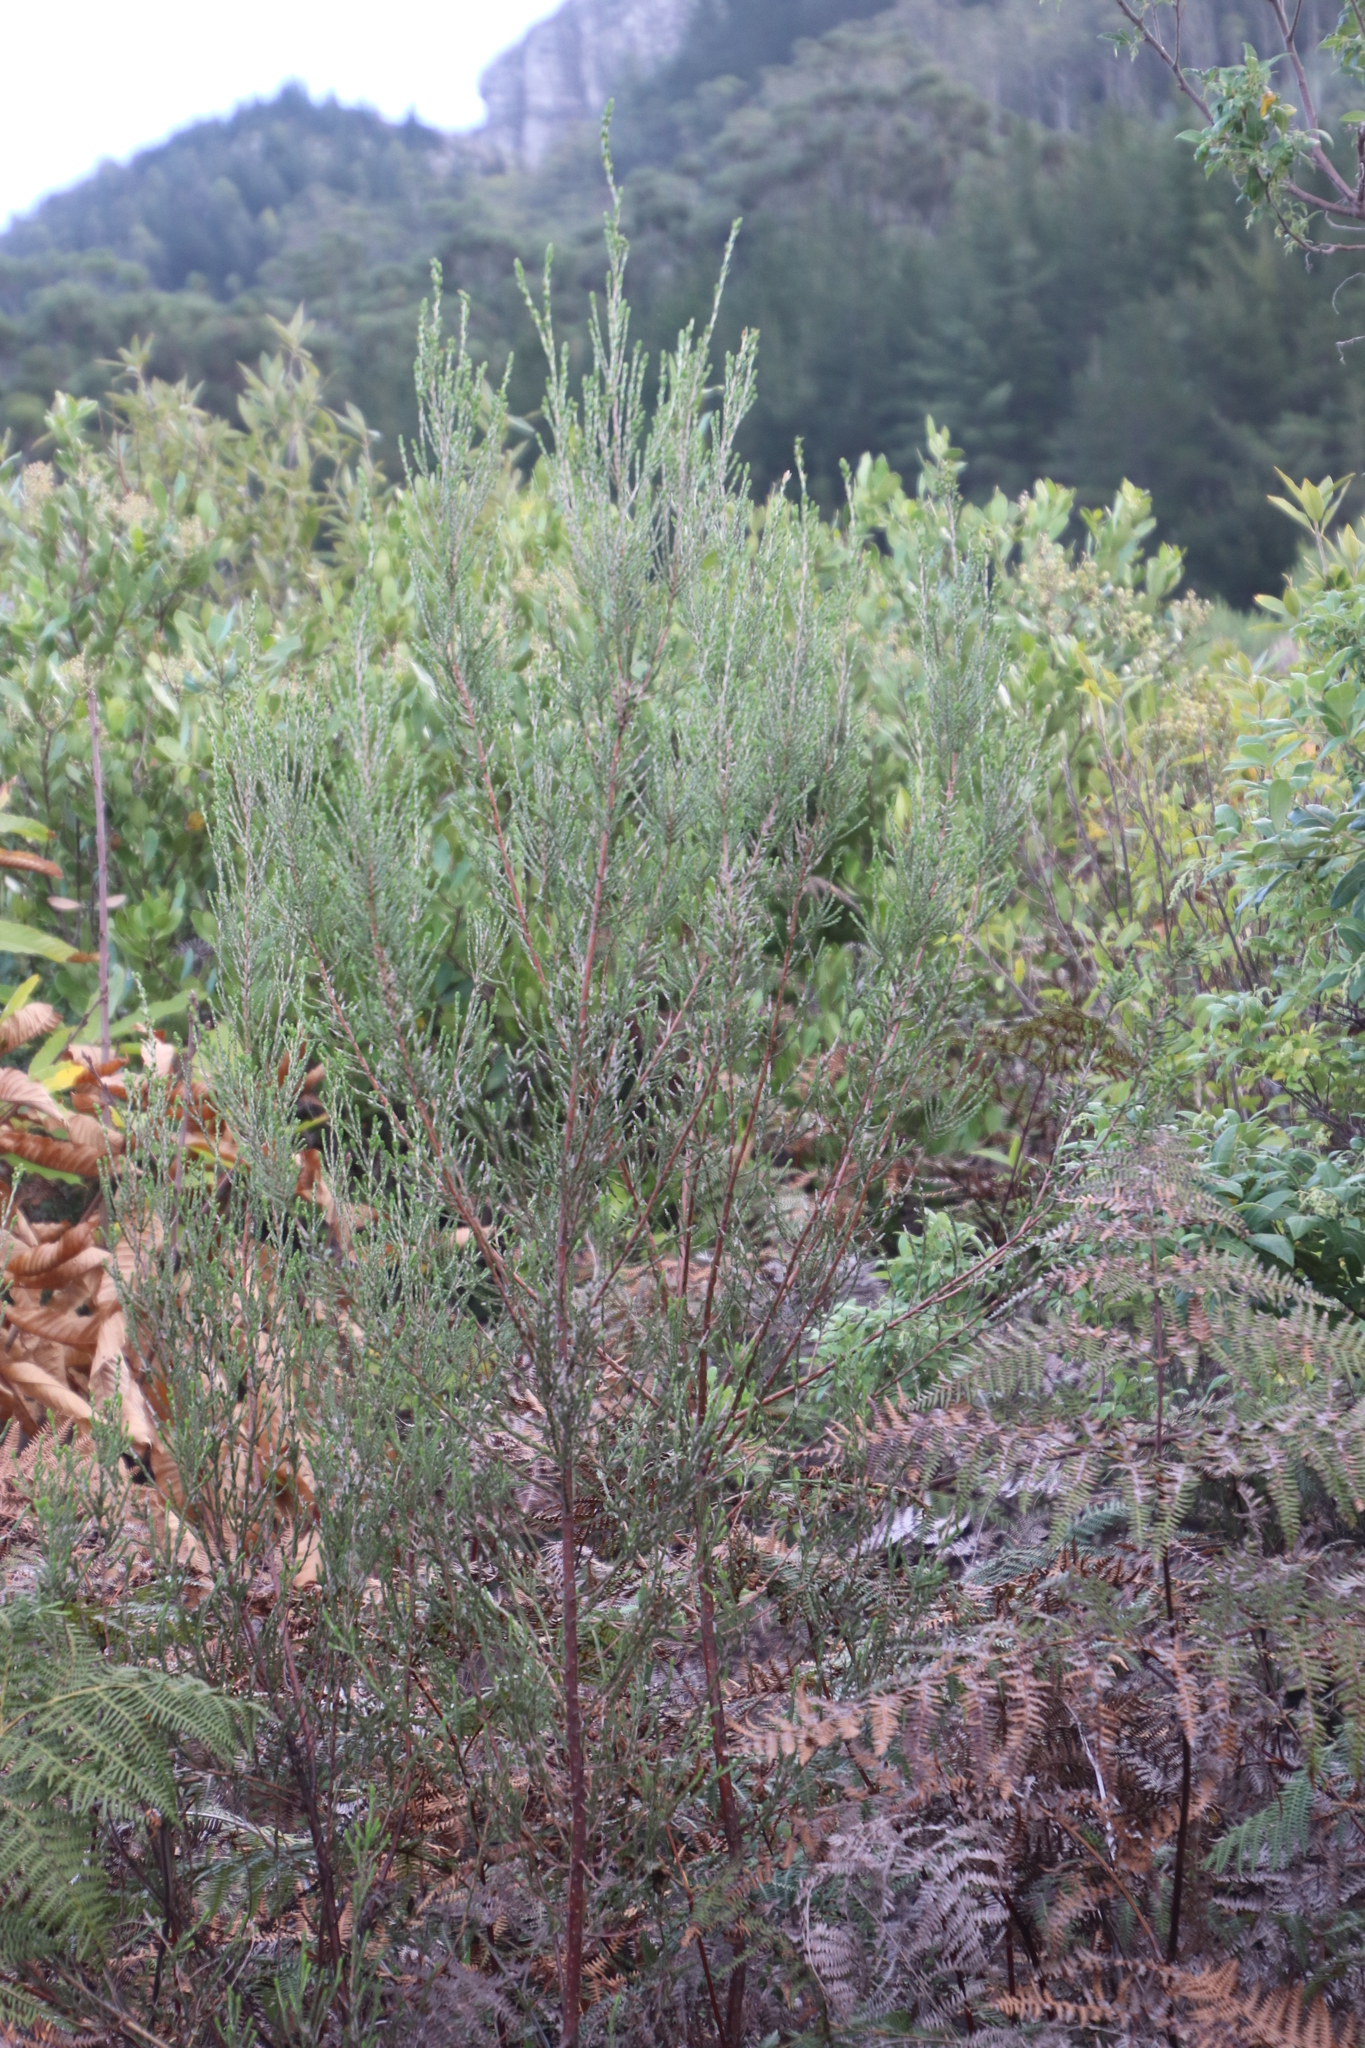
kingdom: Plantae
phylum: Tracheophyta
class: Magnoliopsida
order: Malvales
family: Thymelaeaceae
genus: Passerina
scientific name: Passerina corymbosa
